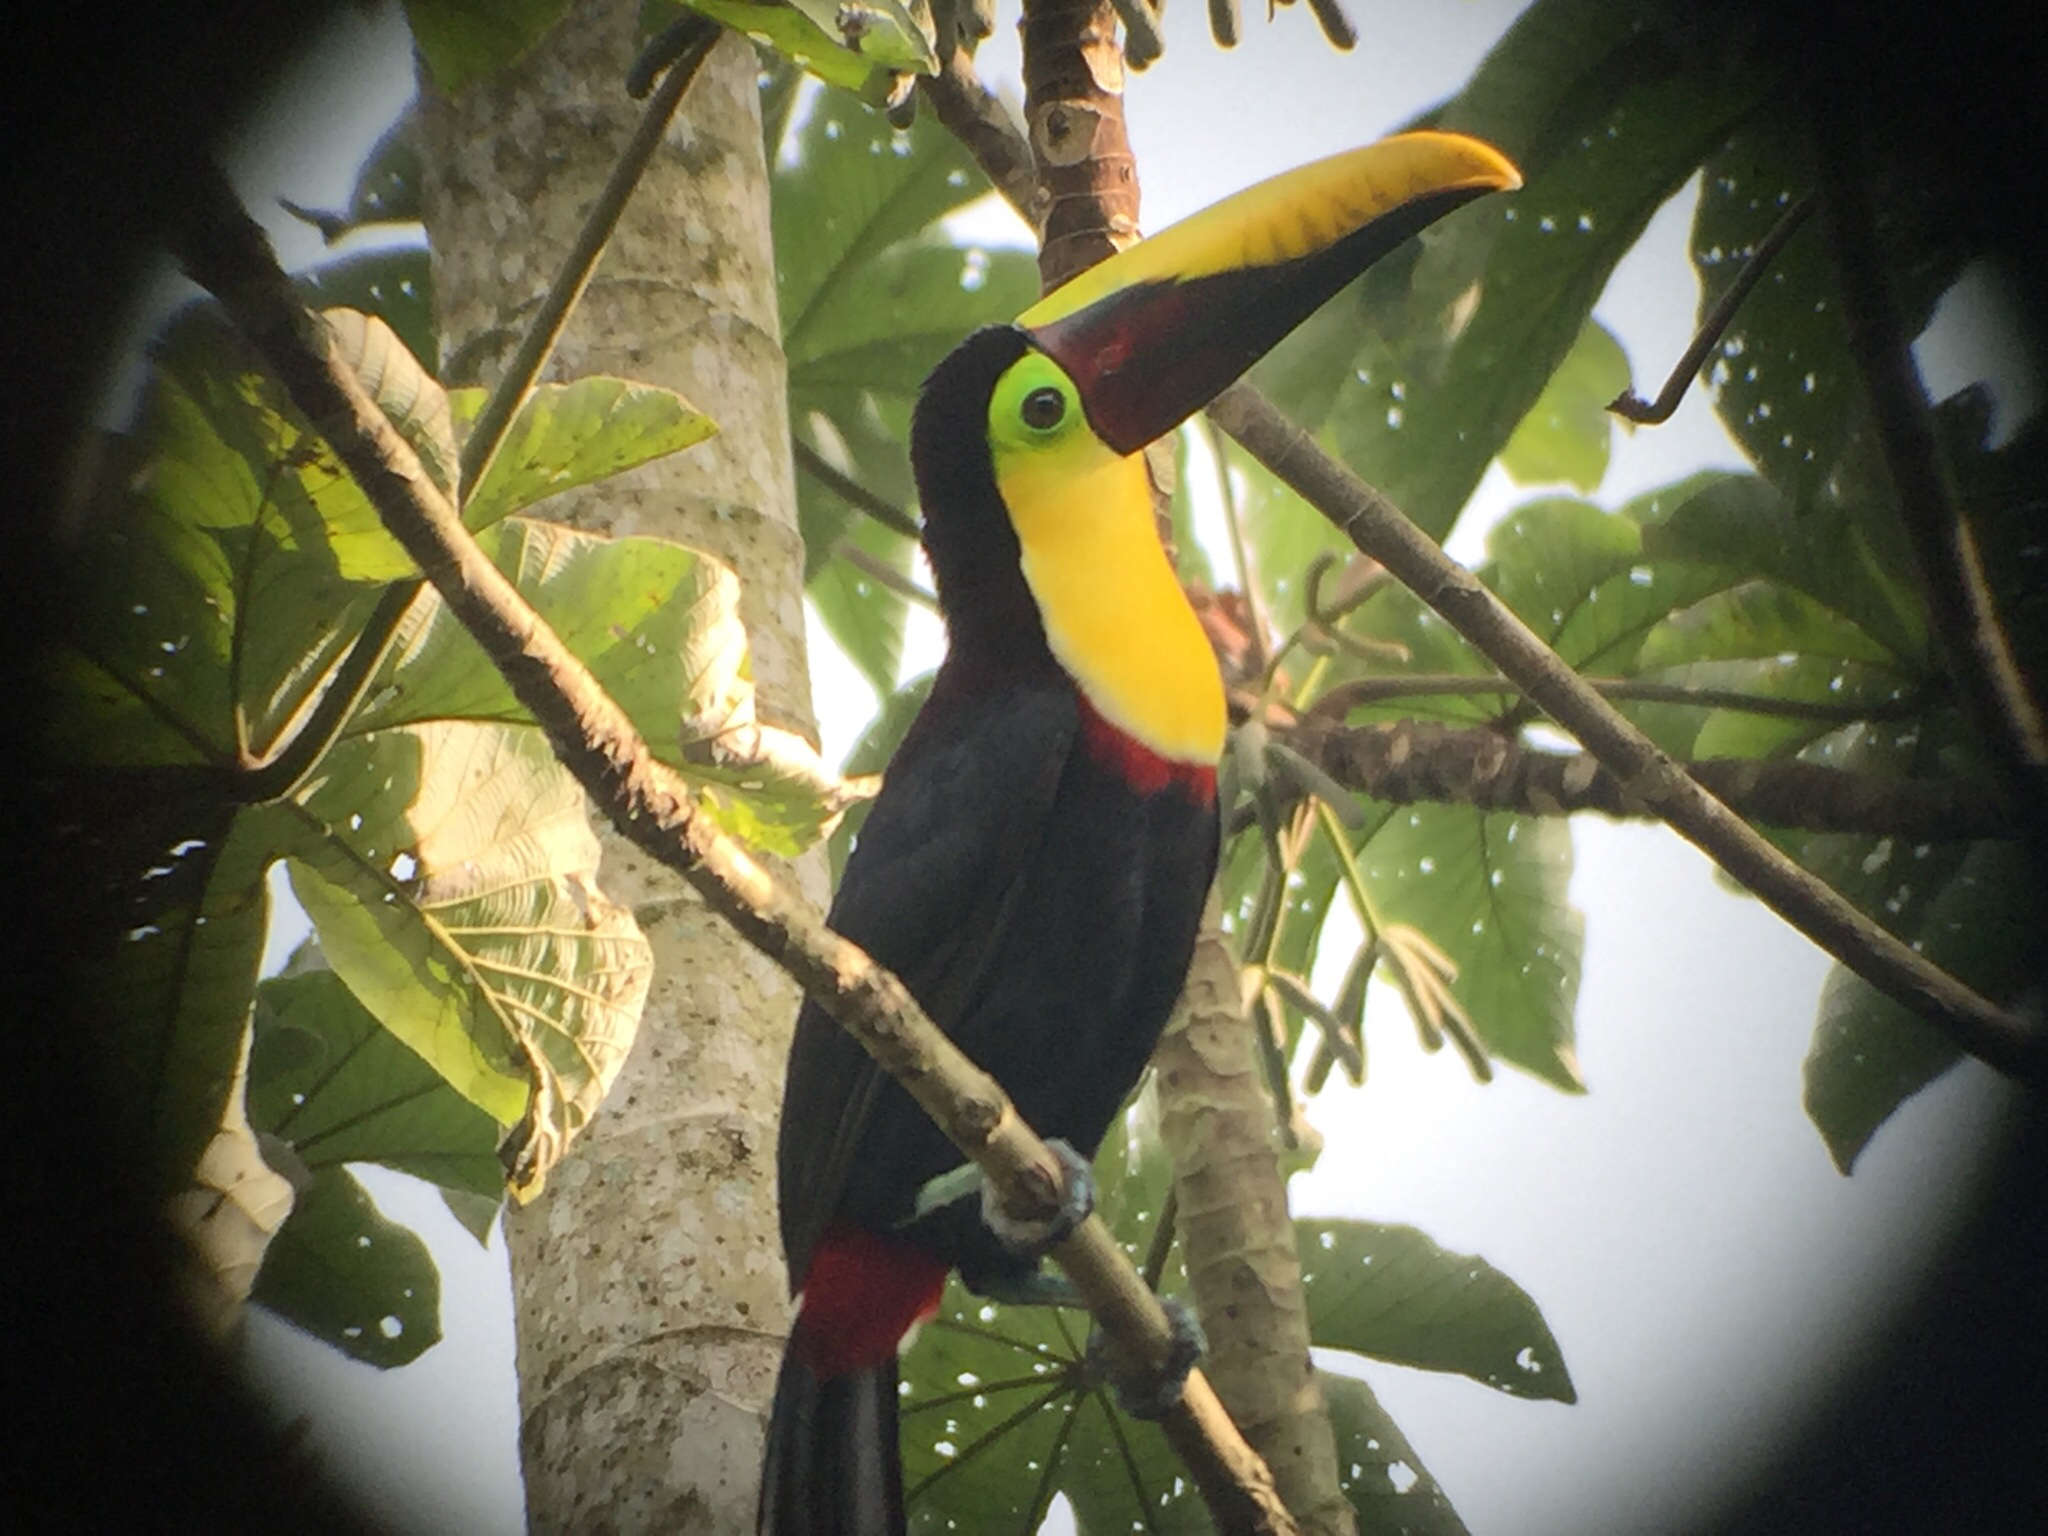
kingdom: Animalia
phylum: Chordata
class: Aves
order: Piciformes
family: Ramphastidae
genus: Ramphastos
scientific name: Ramphastos ambiguus
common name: Yellow-throated toucan
